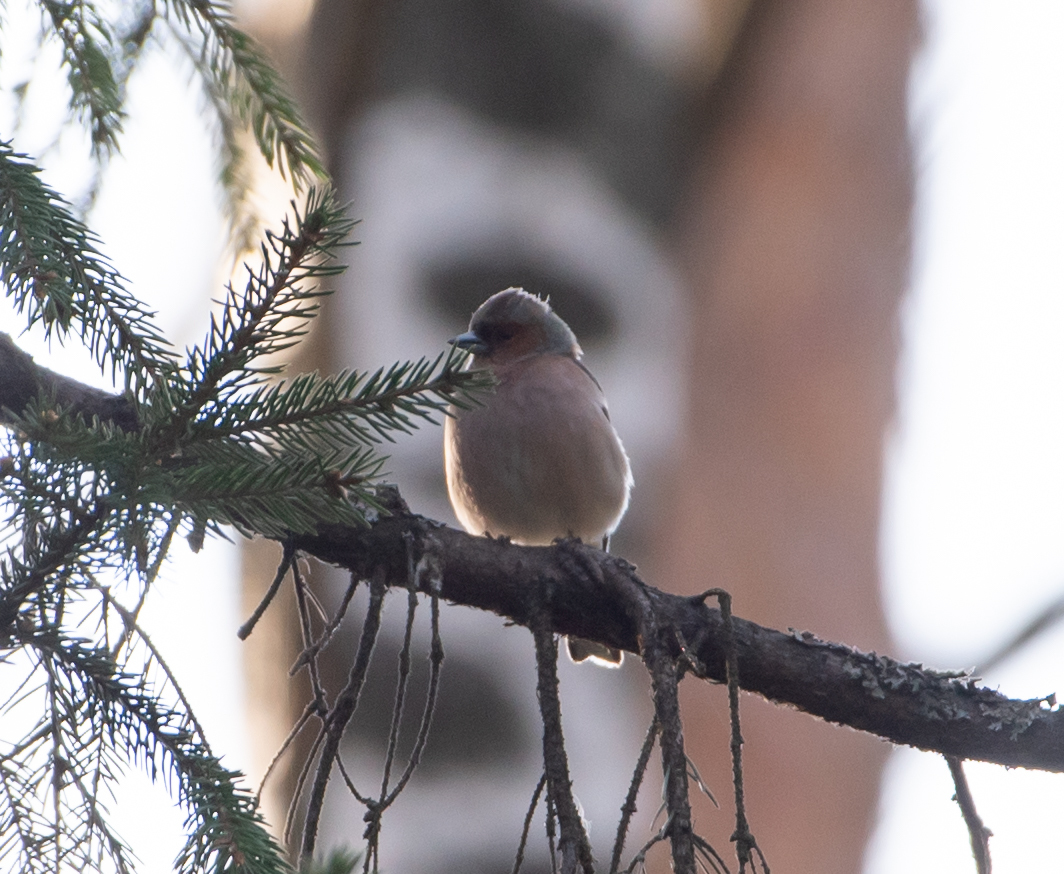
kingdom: Animalia
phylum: Chordata
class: Aves
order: Passeriformes
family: Fringillidae
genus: Fringilla
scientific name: Fringilla coelebs
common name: Common chaffinch
